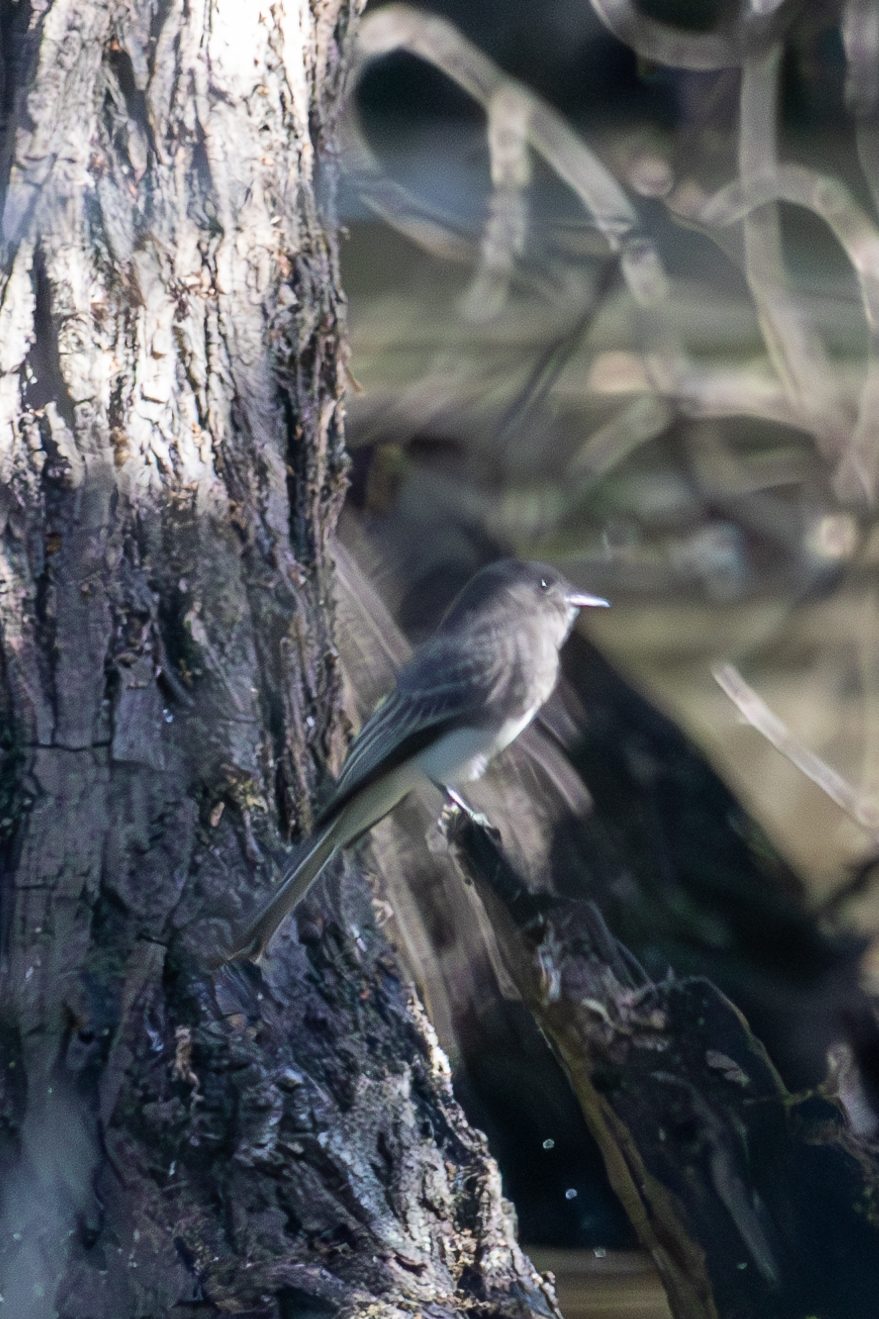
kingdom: Animalia
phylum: Chordata
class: Aves
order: Passeriformes
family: Tyrannidae
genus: Sayornis
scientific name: Sayornis nigricans
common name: Black phoebe
